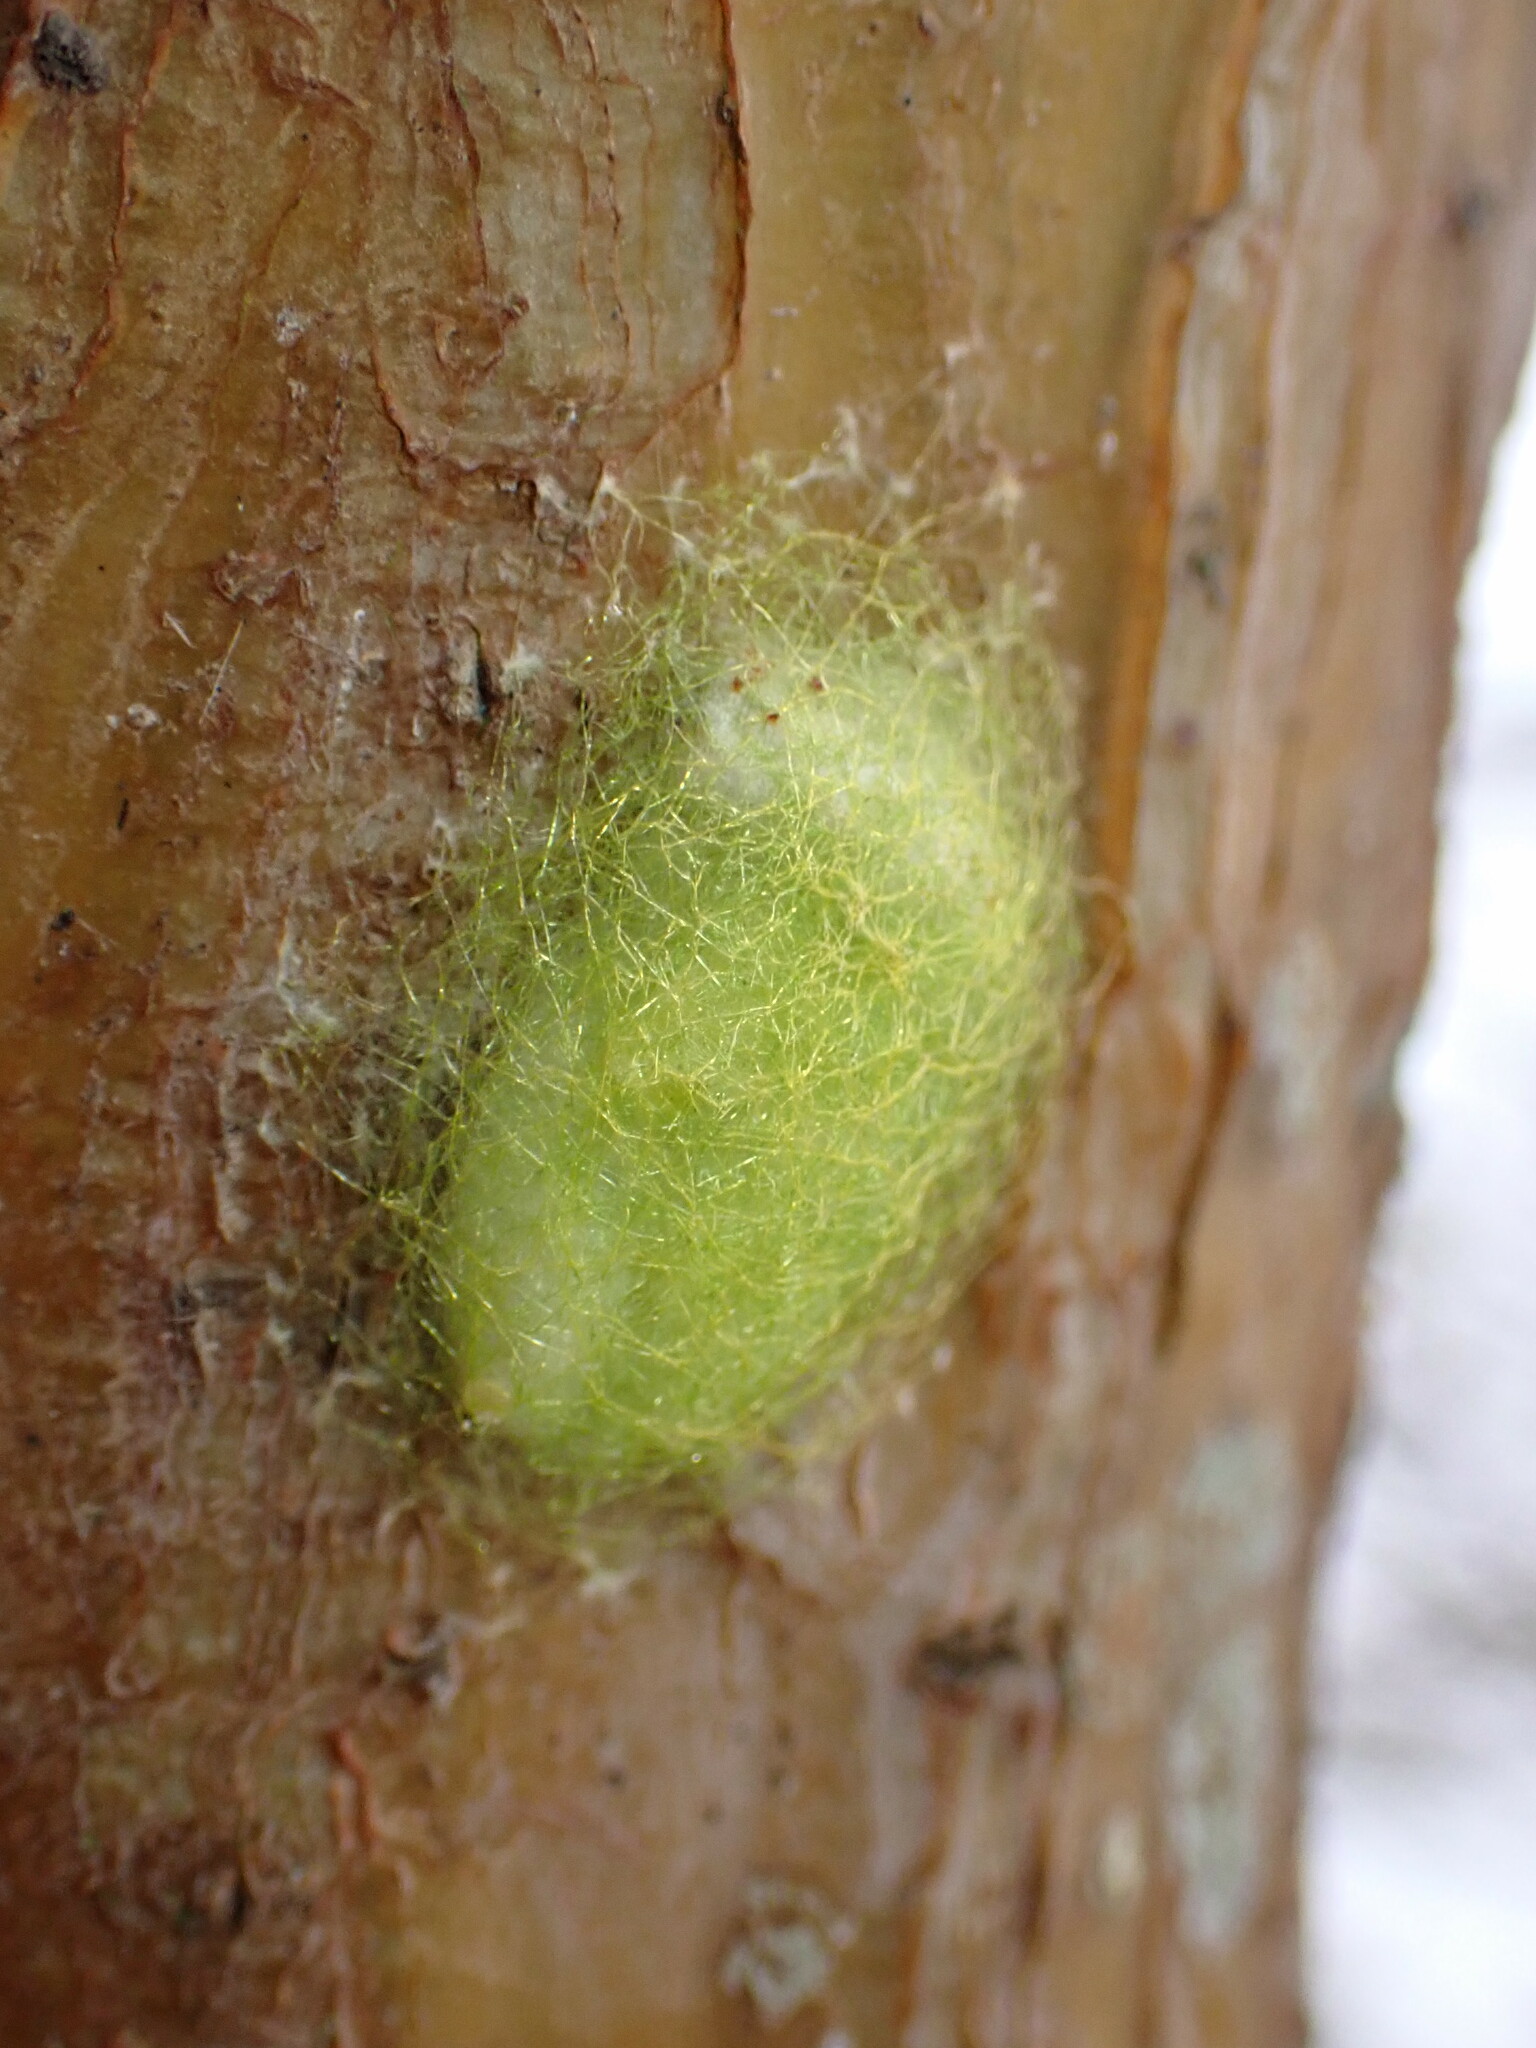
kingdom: Animalia
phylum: Arthropoda
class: Arachnida
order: Araneae
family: Araneidae
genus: Gasteracantha
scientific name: Gasteracantha cancriformis
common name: Orb weavers
